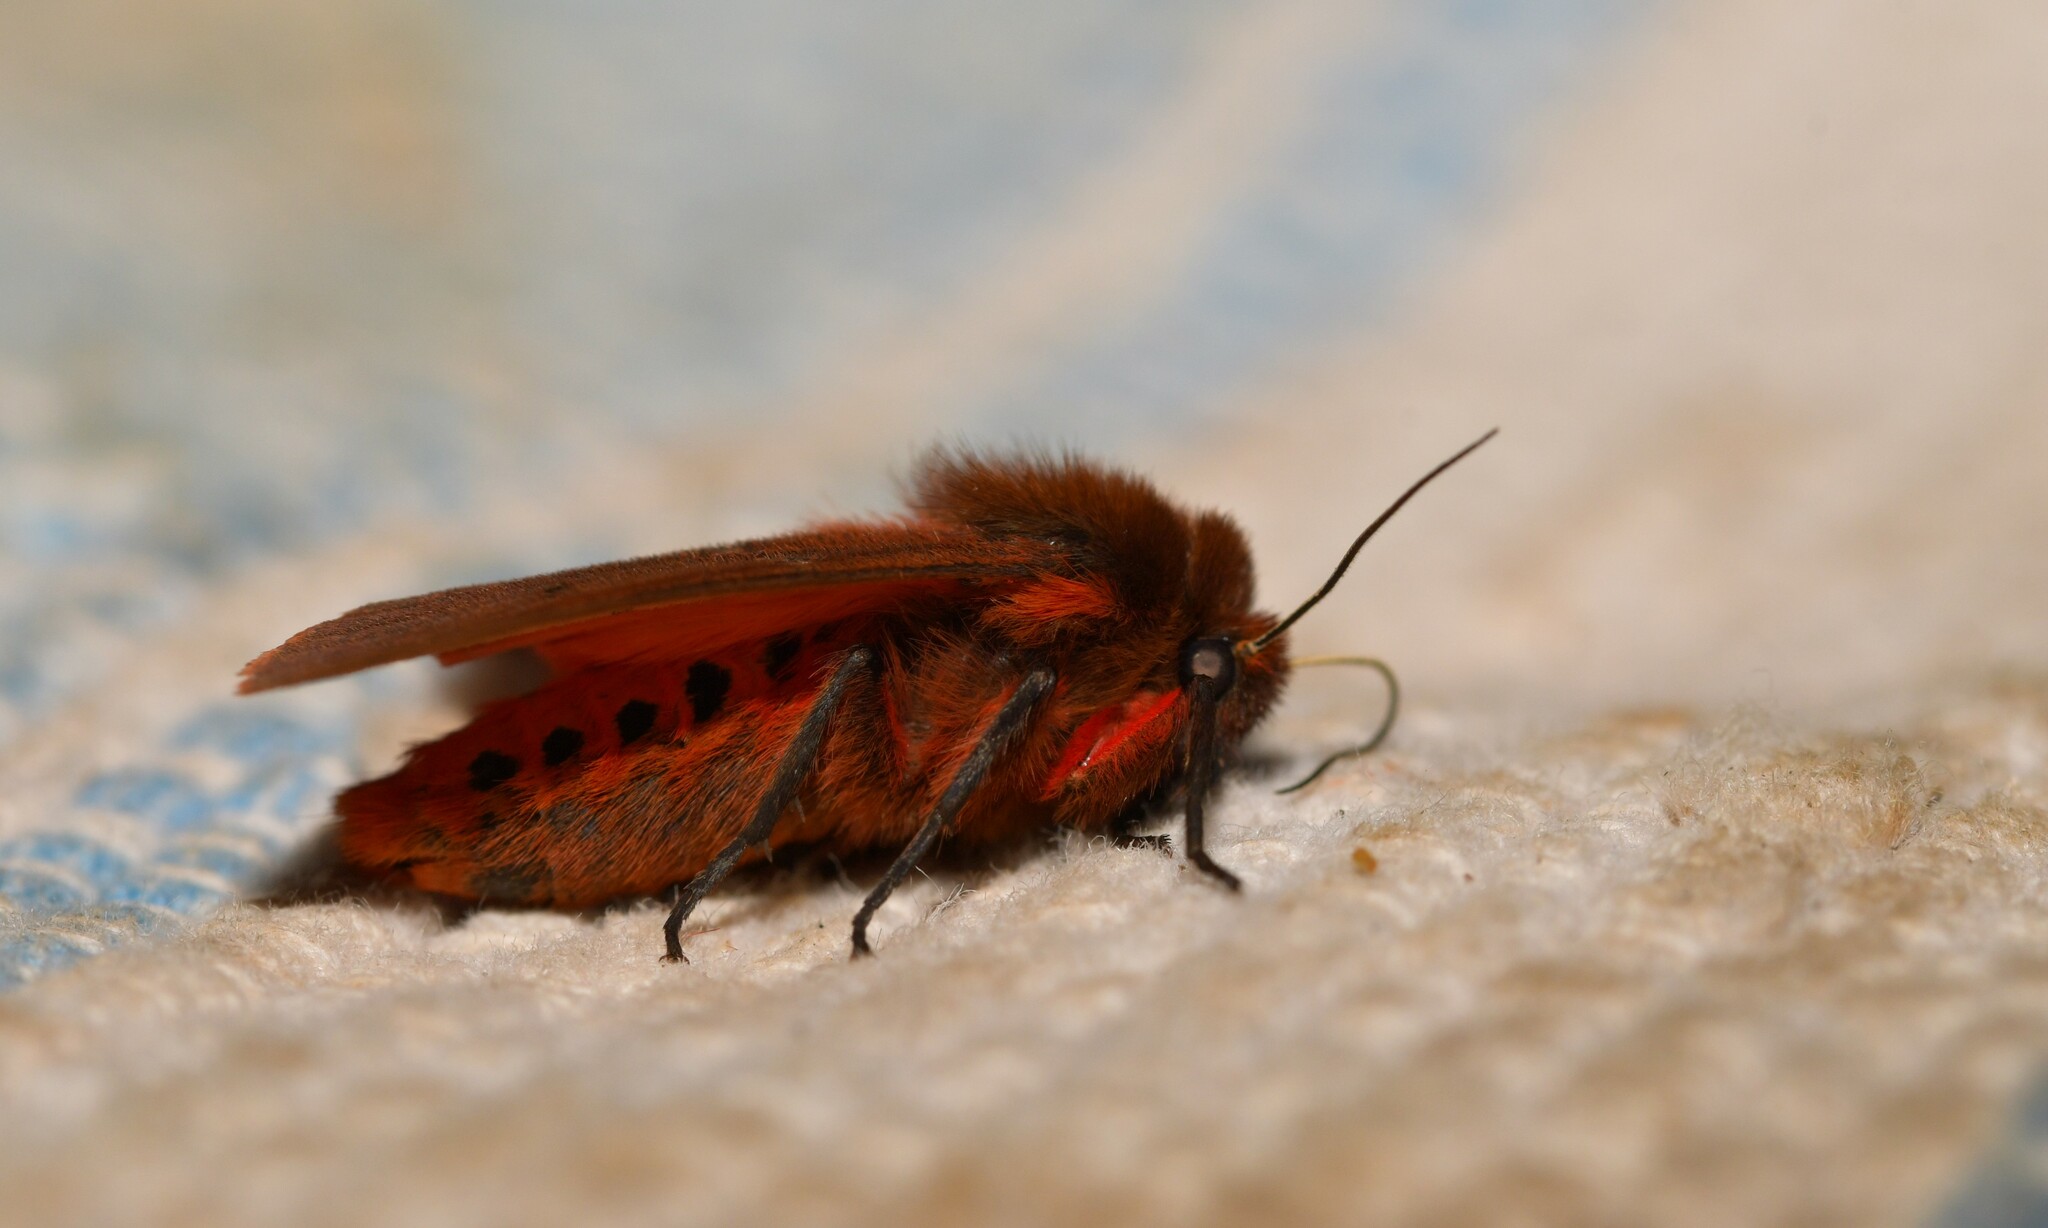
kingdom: Animalia
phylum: Arthropoda
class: Insecta
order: Lepidoptera
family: Erebidae
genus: Phragmatobia
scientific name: Phragmatobia fuliginosa
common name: Ruby tiger
